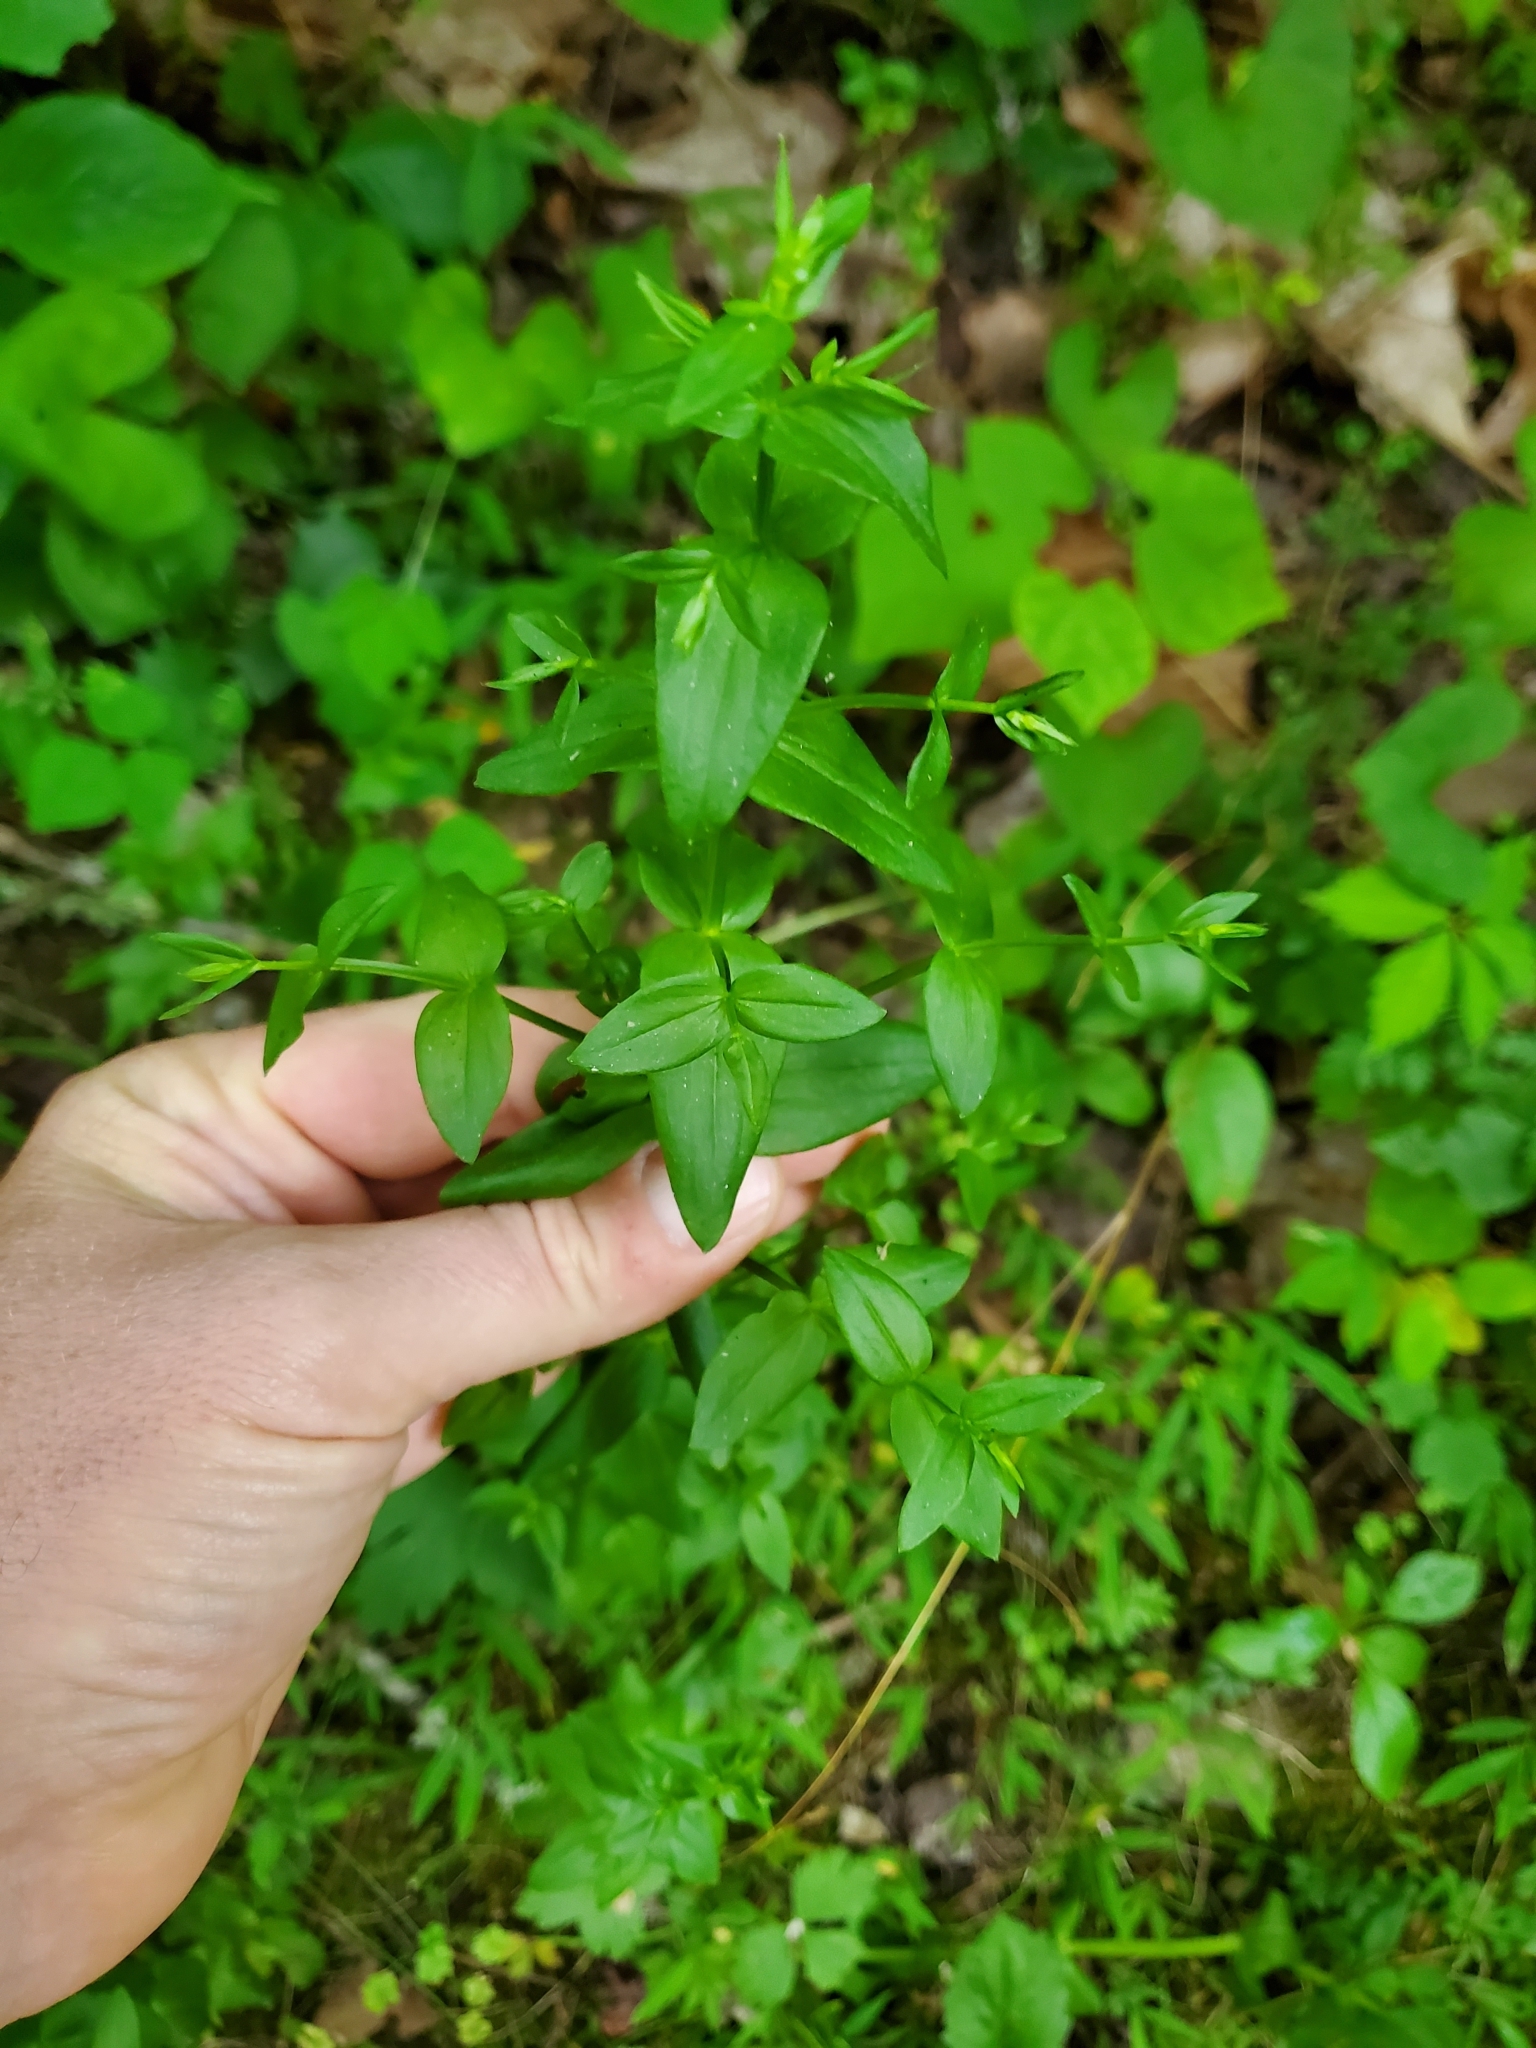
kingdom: Plantae
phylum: Tracheophyta
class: Magnoliopsida
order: Gentianales
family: Rubiaceae
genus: Houstonia
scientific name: Houstonia purpurea
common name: Summer bluet
